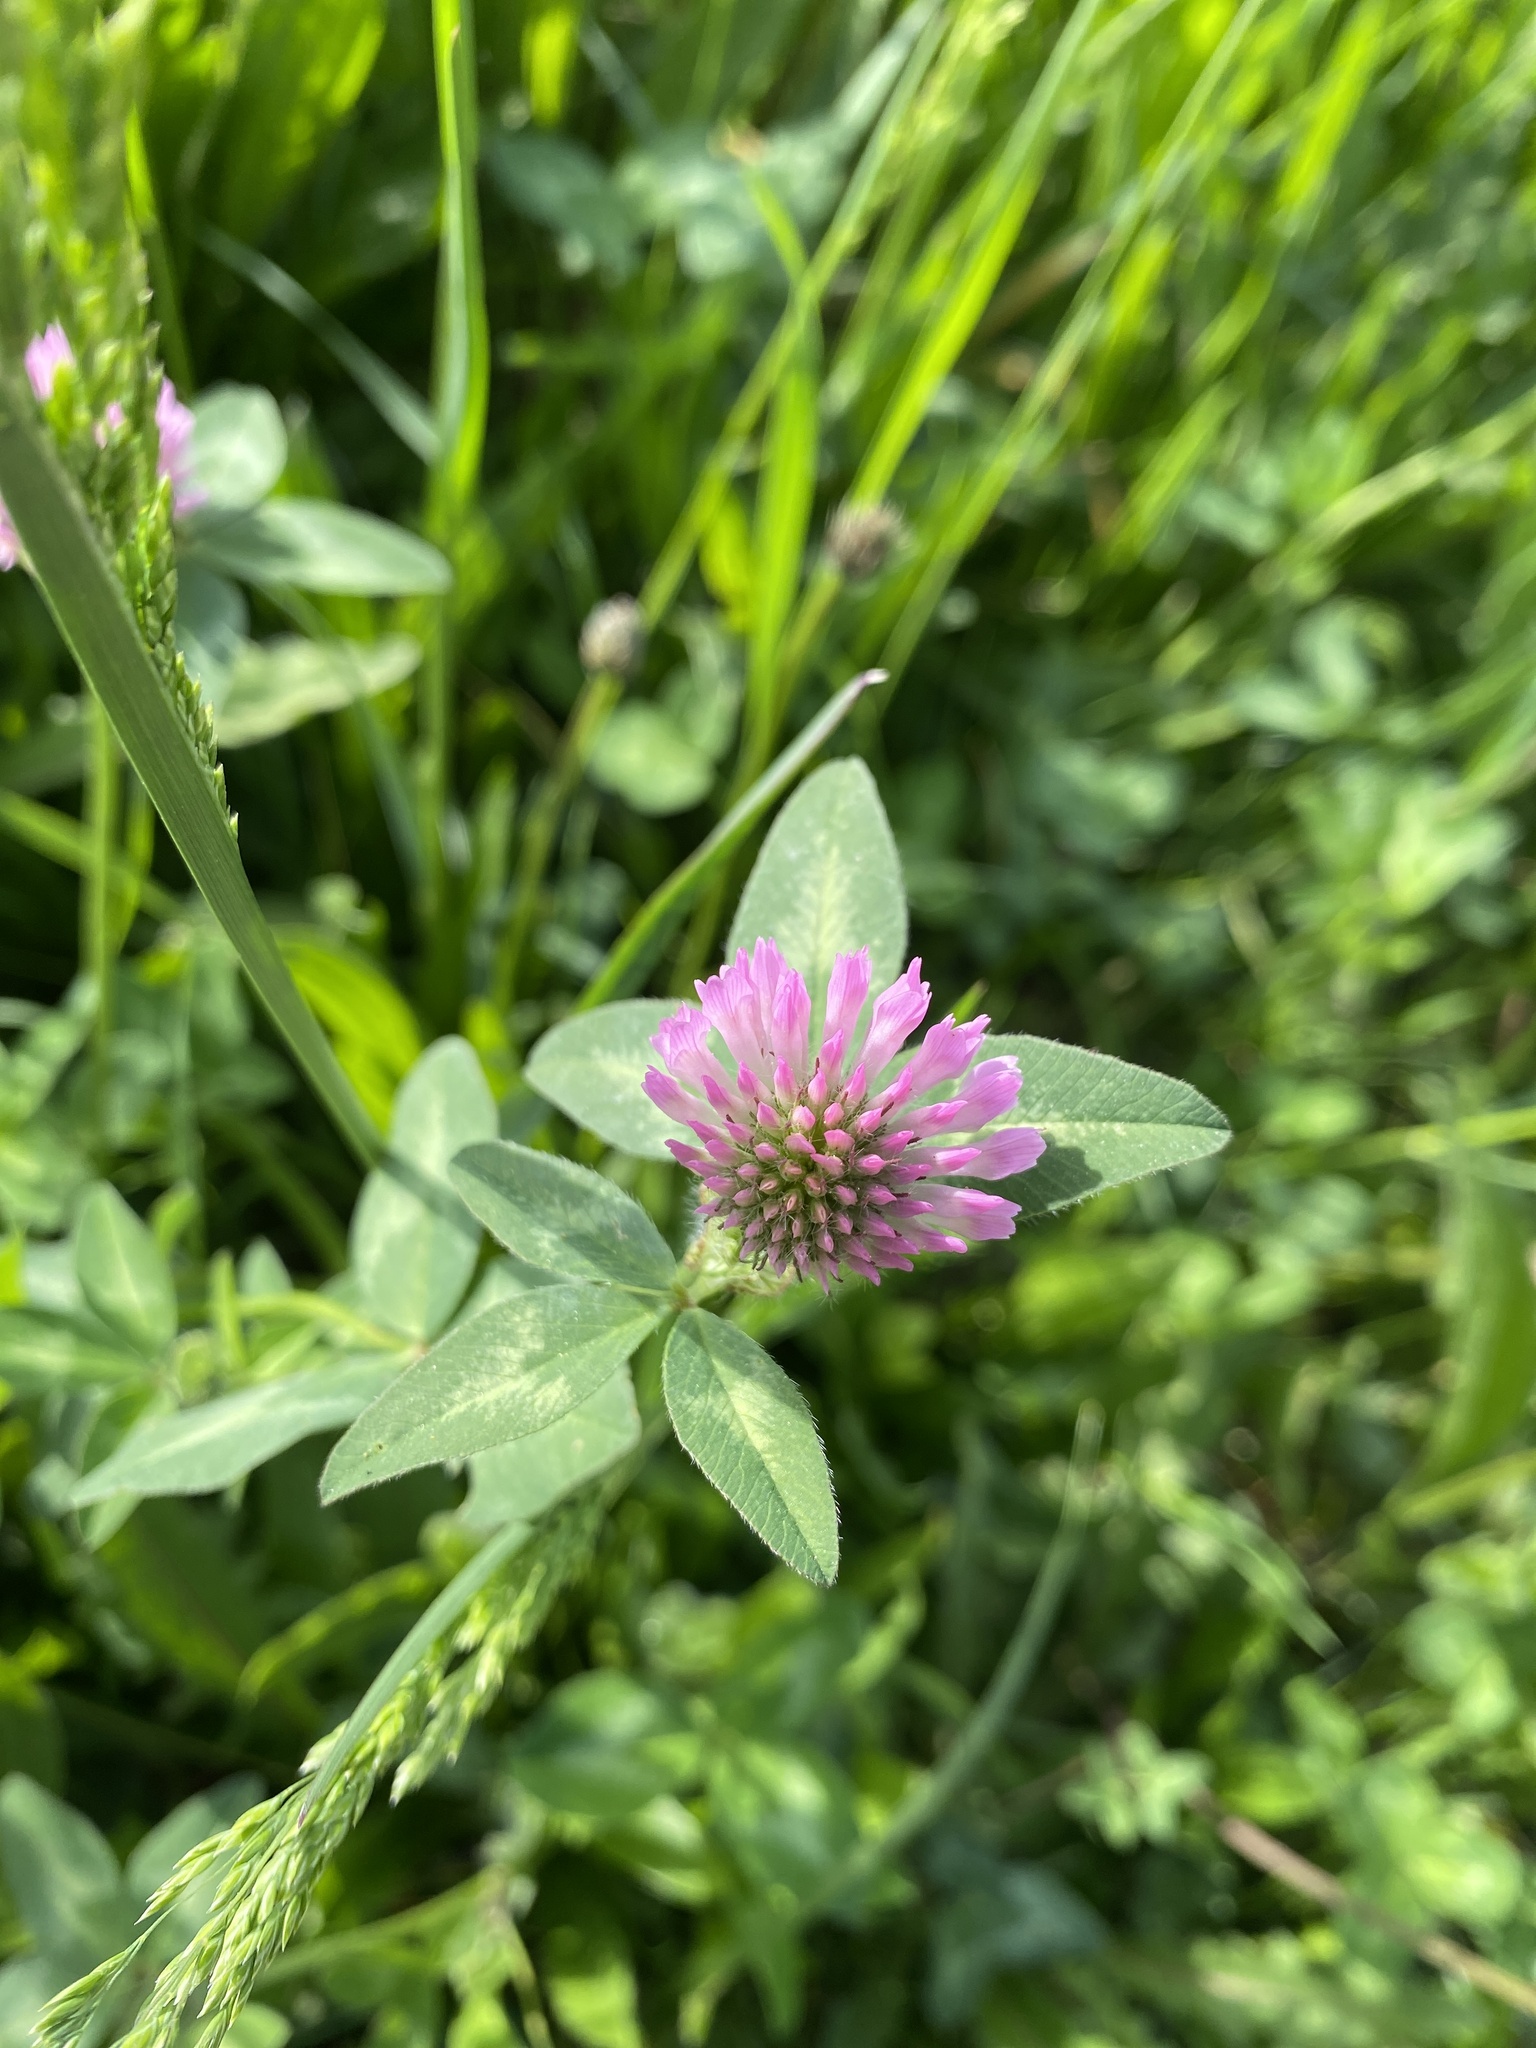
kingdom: Plantae
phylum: Tracheophyta
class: Magnoliopsida
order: Fabales
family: Fabaceae
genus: Trifolium
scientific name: Trifolium pratense
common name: Red clover
